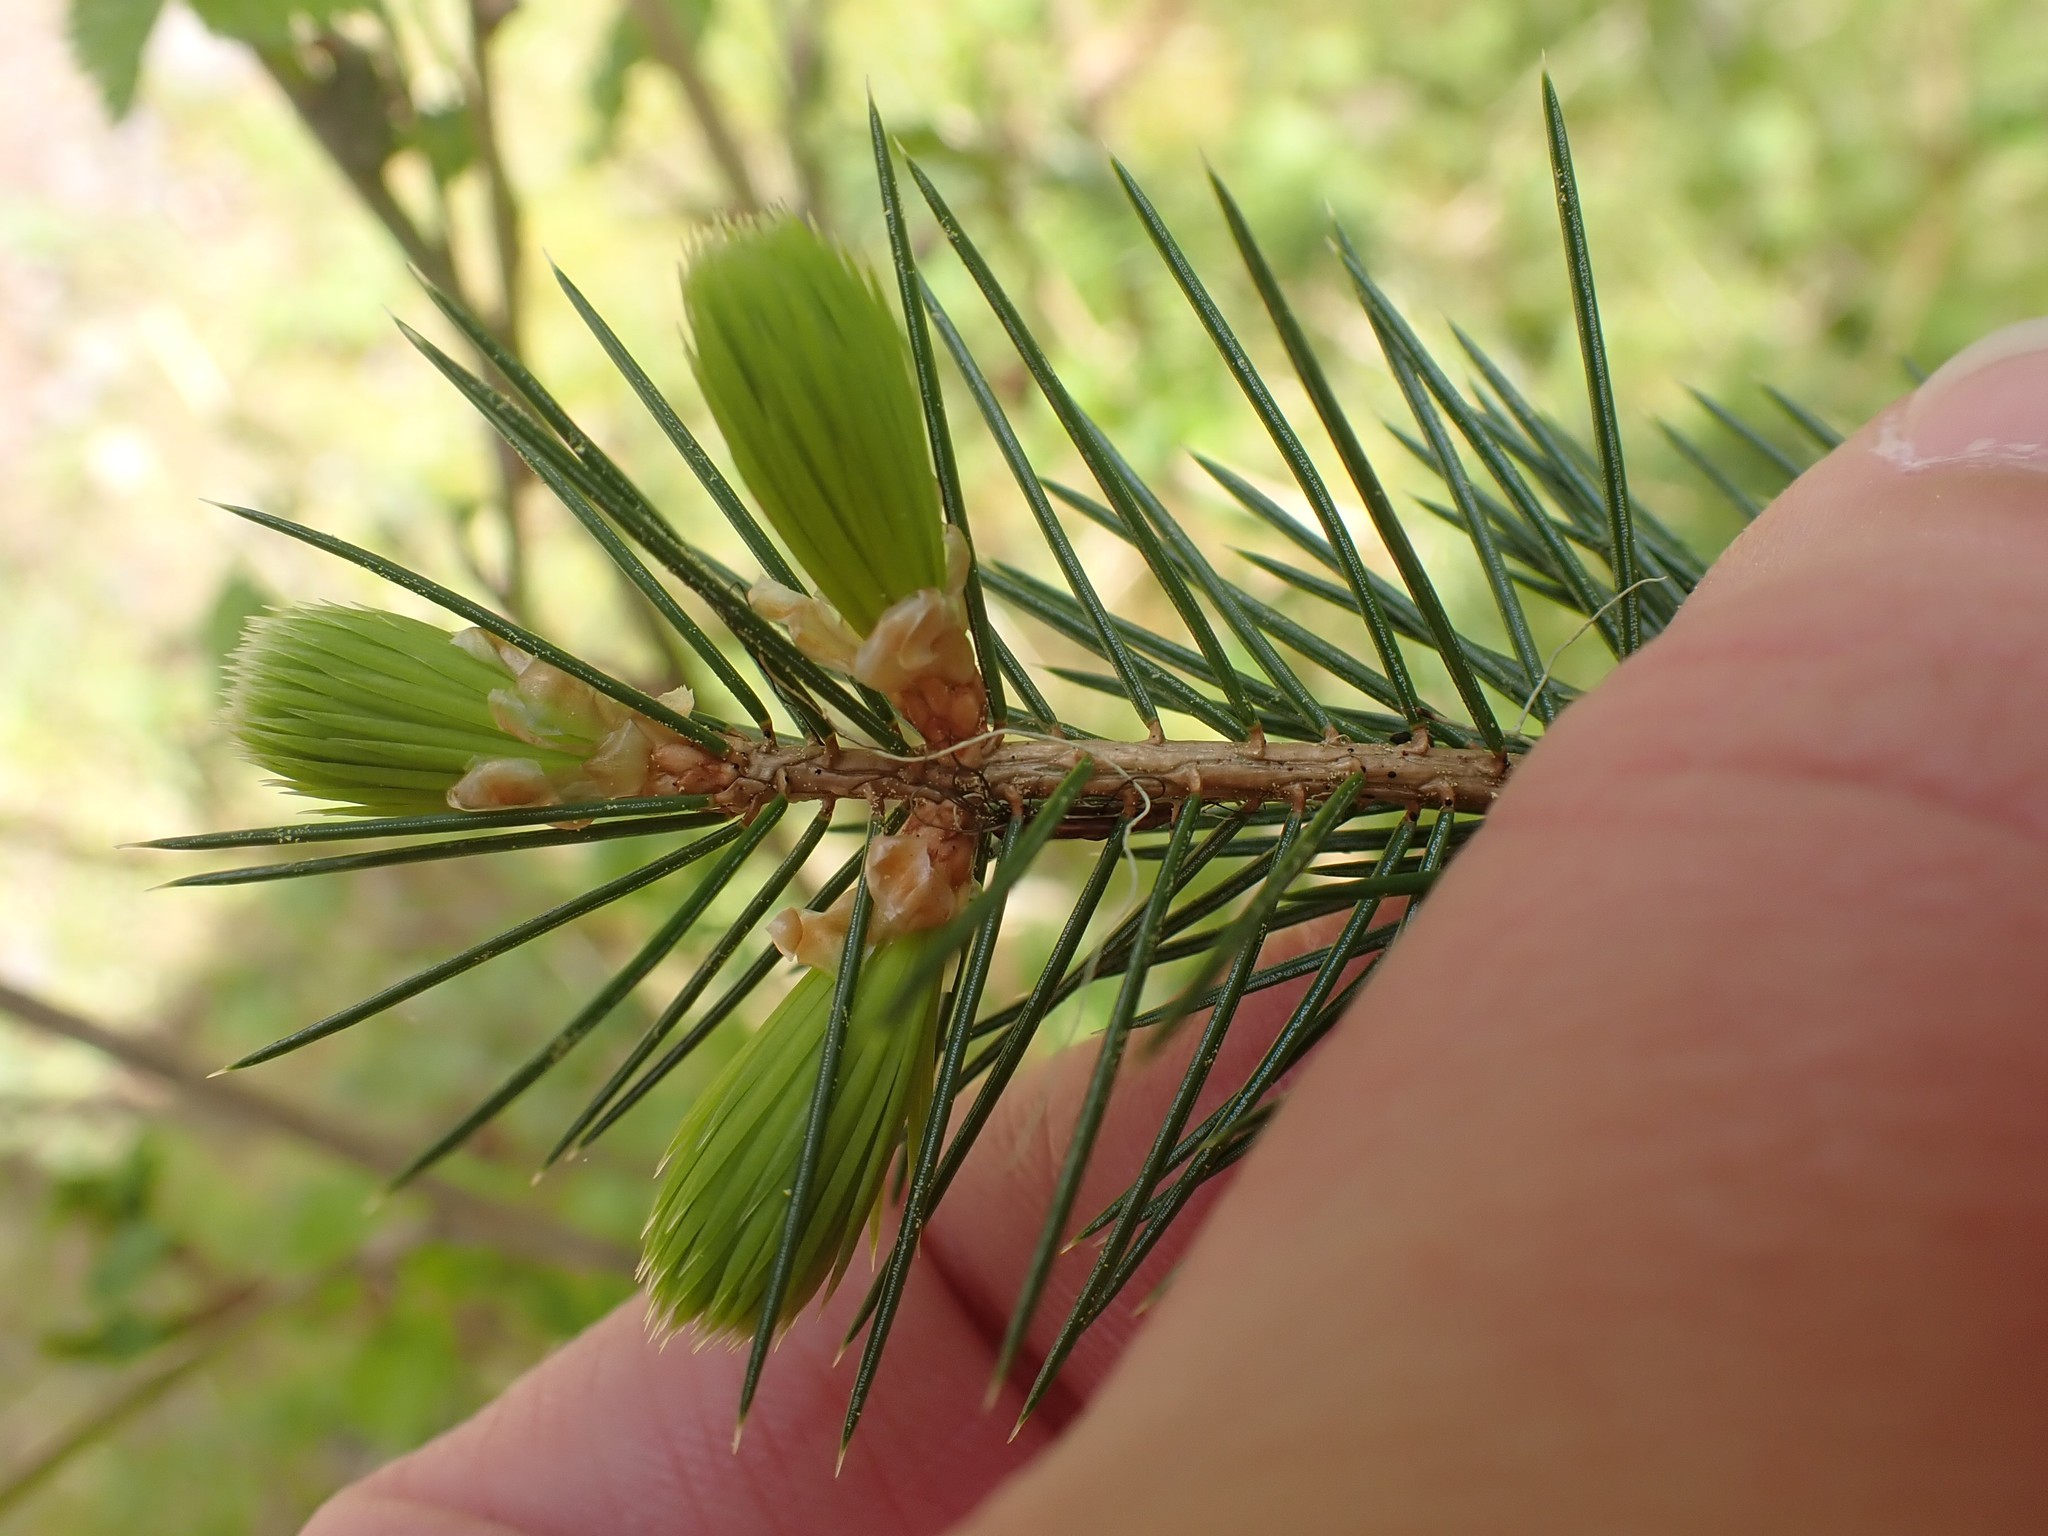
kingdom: Plantae
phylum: Tracheophyta
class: Pinopsida
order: Pinales
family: Pinaceae
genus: Picea
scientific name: Picea sitchensis
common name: Sitka spruce
